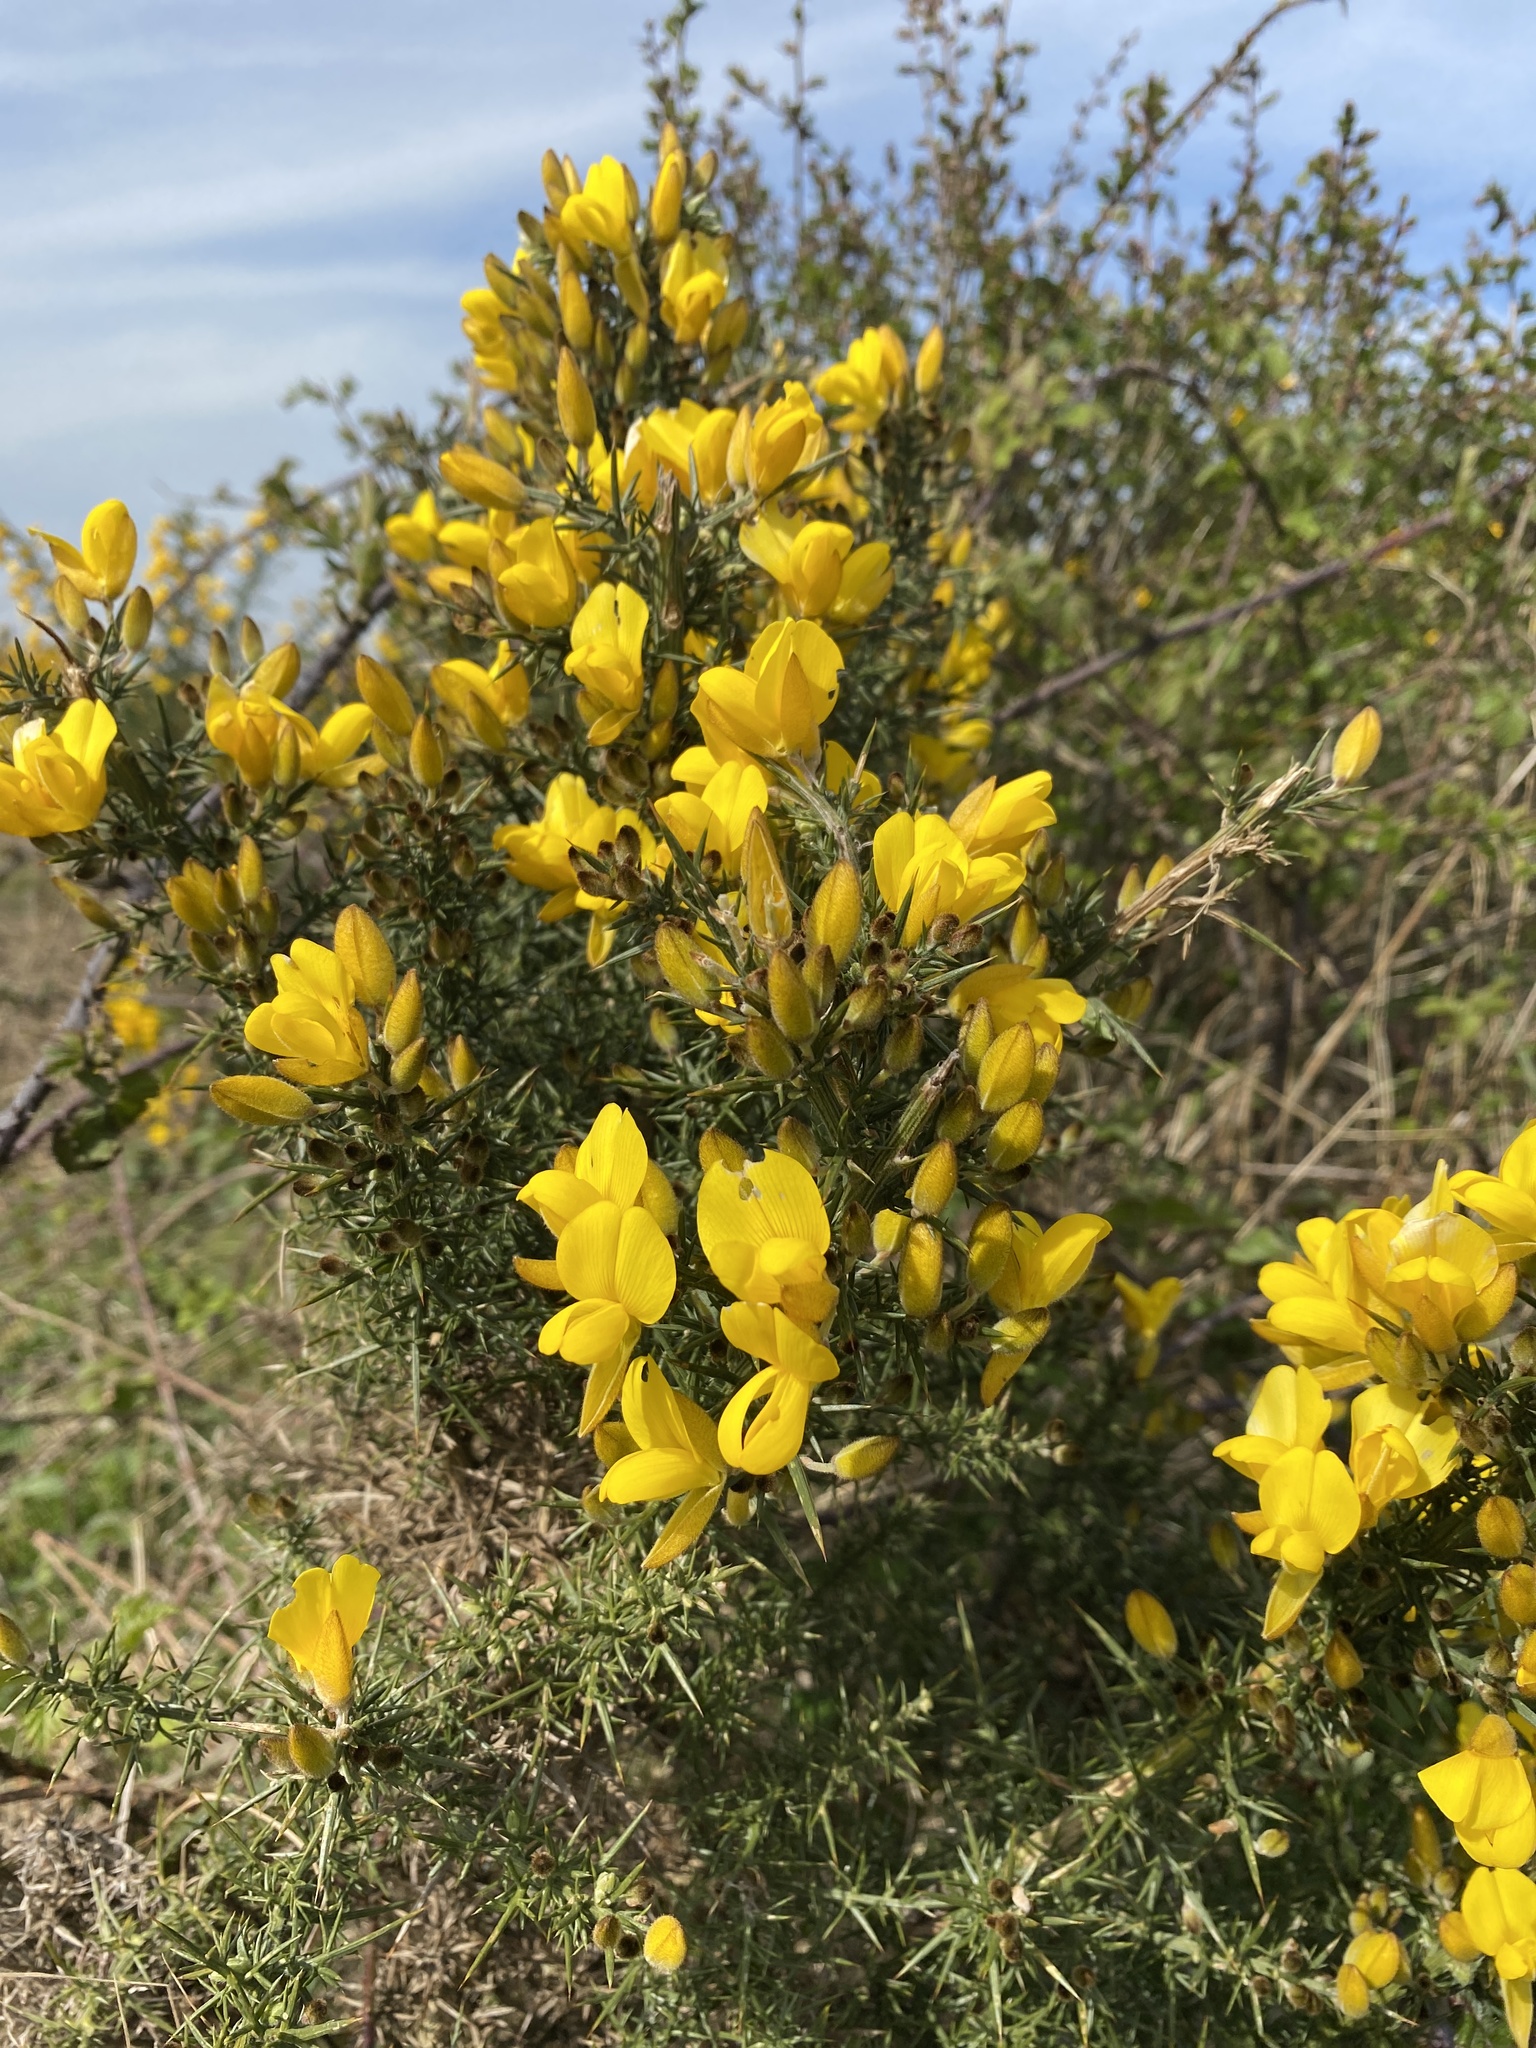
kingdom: Plantae
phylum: Tracheophyta
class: Magnoliopsida
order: Fabales
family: Fabaceae
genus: Ulex
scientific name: Ulex europaeus
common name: Common gorse
